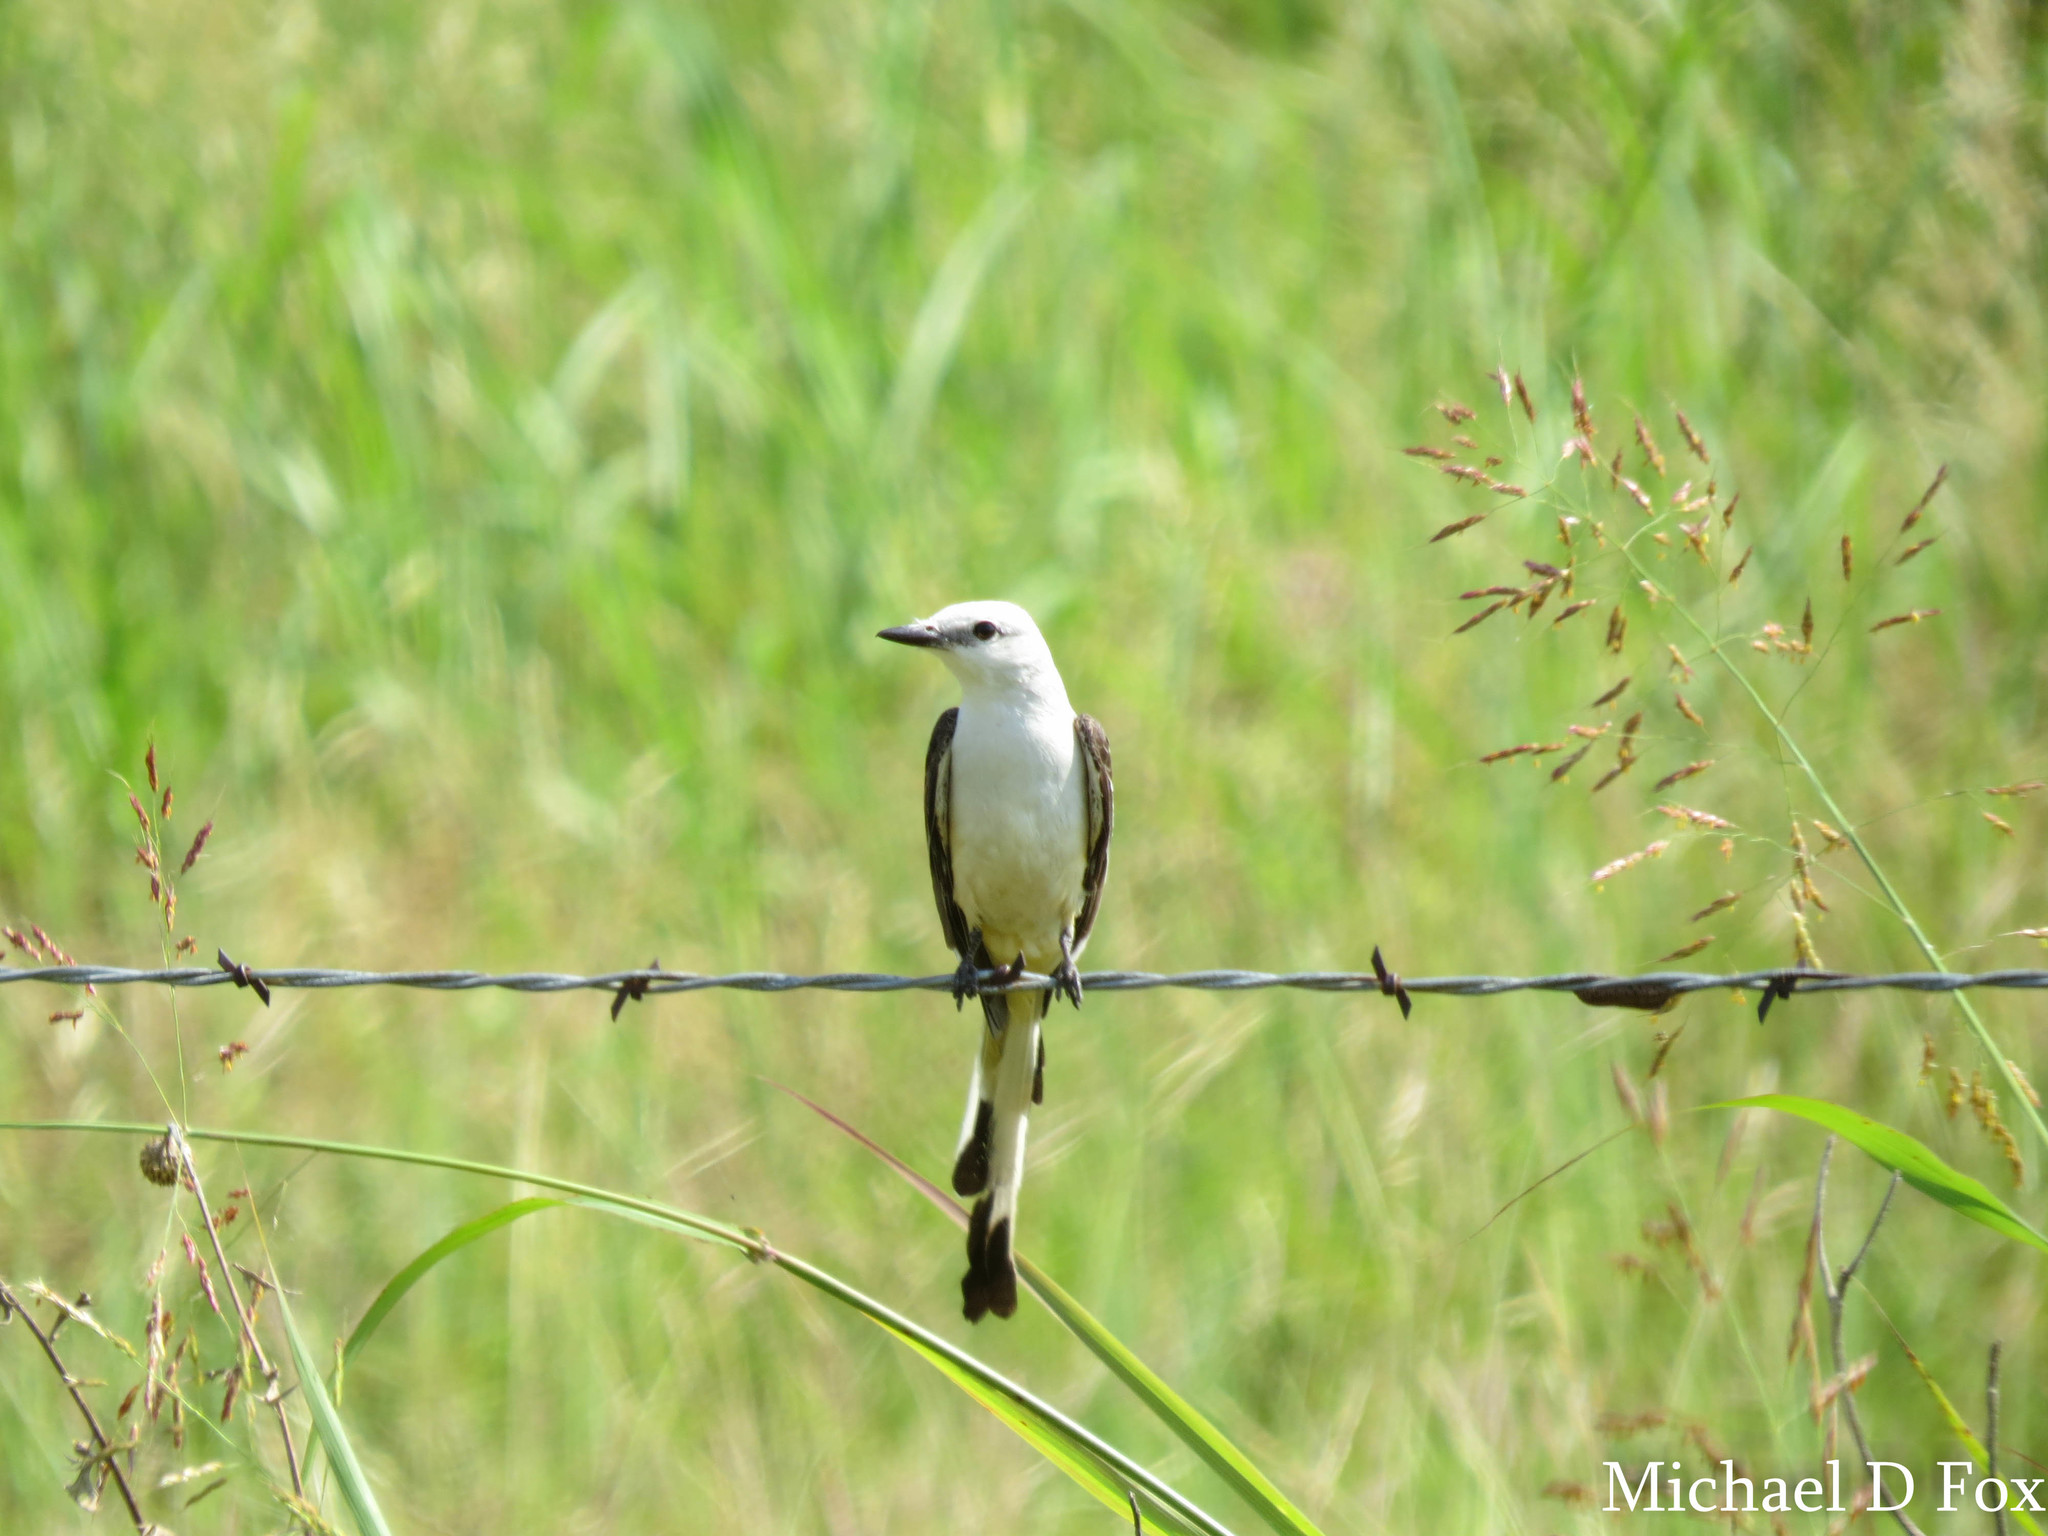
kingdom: Animalia
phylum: Chordata
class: Aves
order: Passeriformes
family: Tyrannidae
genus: Tyrannus
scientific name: Tyrannus forficatus
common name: Scissor-tailed flycatcher
